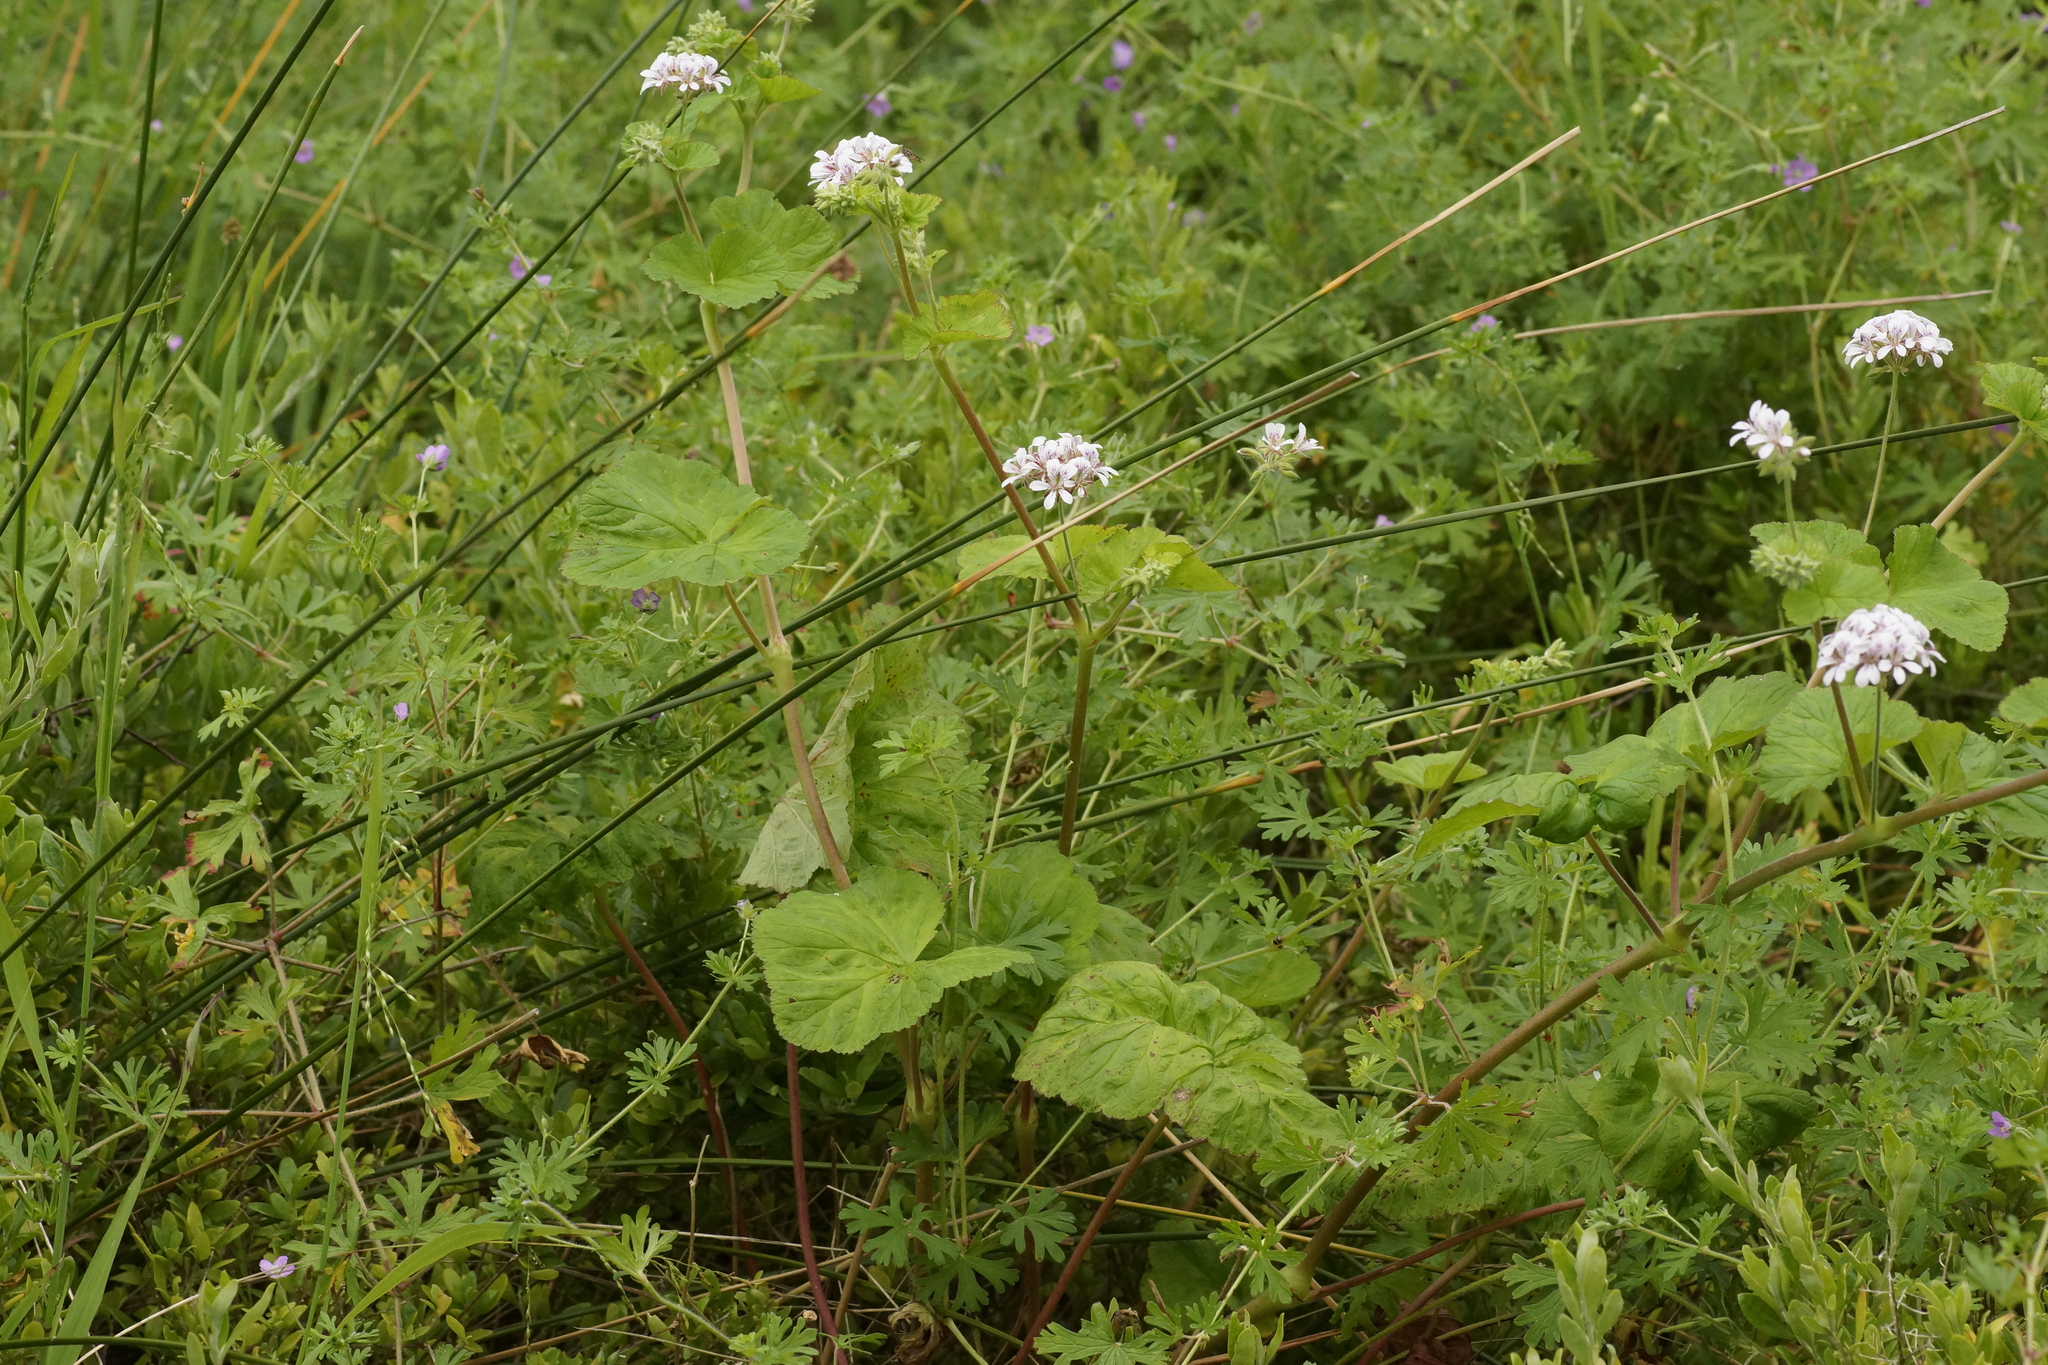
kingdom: Plantae
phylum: Tracheophyta
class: Magnoliopsida
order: Geraniales
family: Geraniaceae
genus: Pelargonium
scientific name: Pelargonium australe
